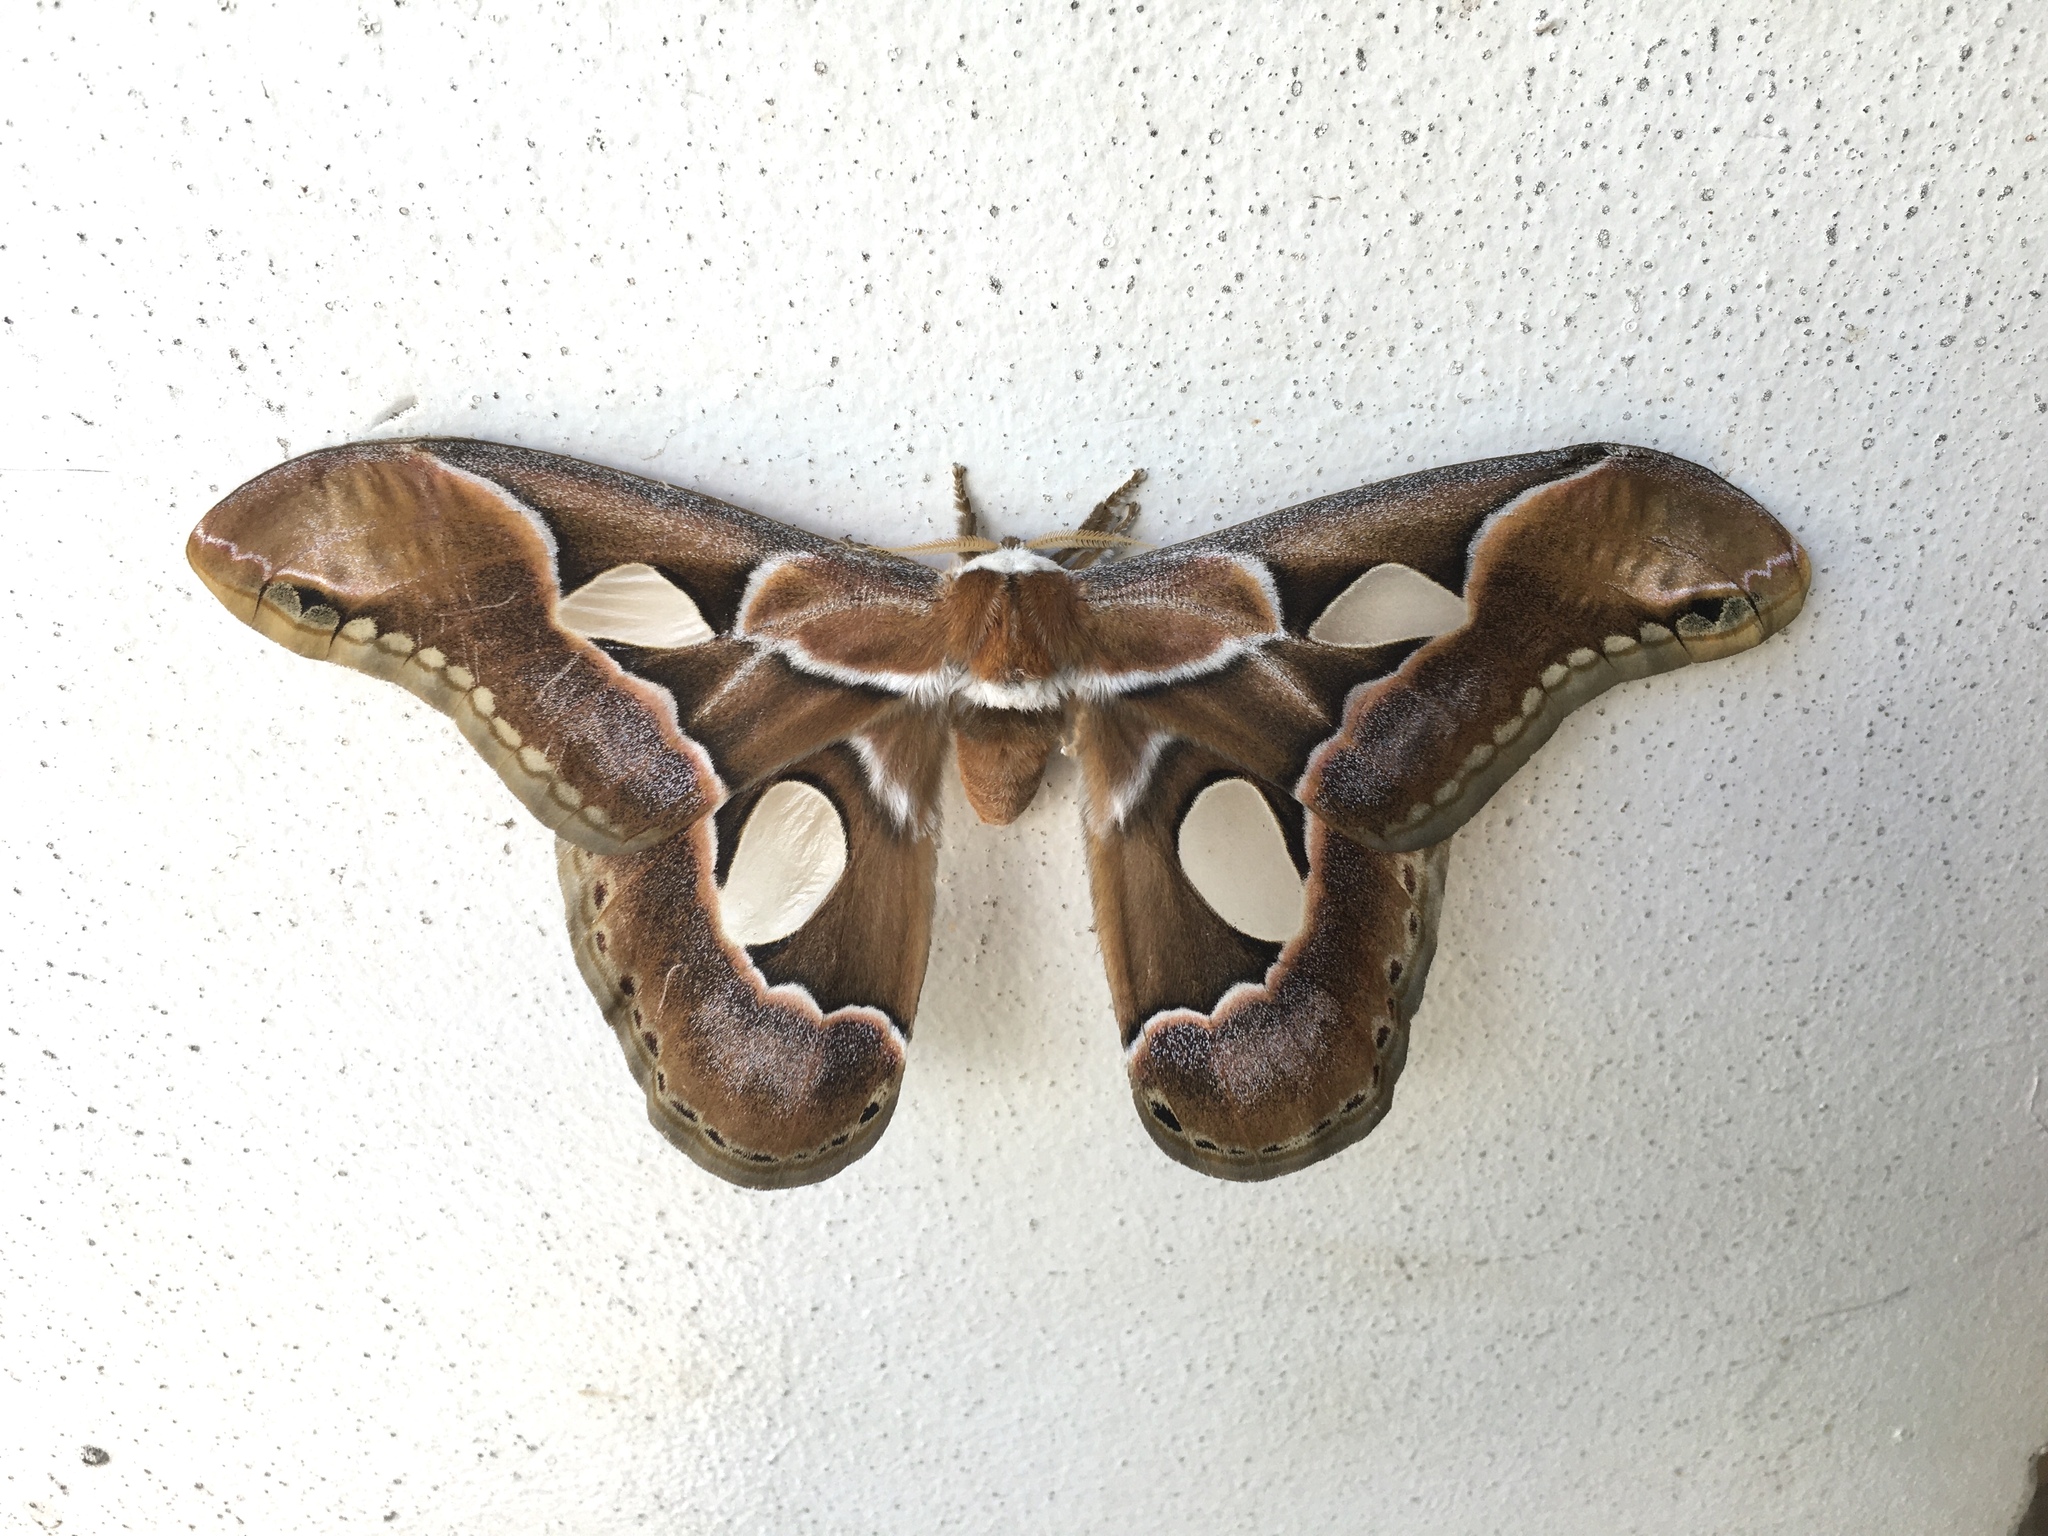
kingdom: Animalia
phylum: Arthropoda
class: Insecta
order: Lepidoptera
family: Saturniidae
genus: Rothschildia
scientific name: Rothschildia arethusa
